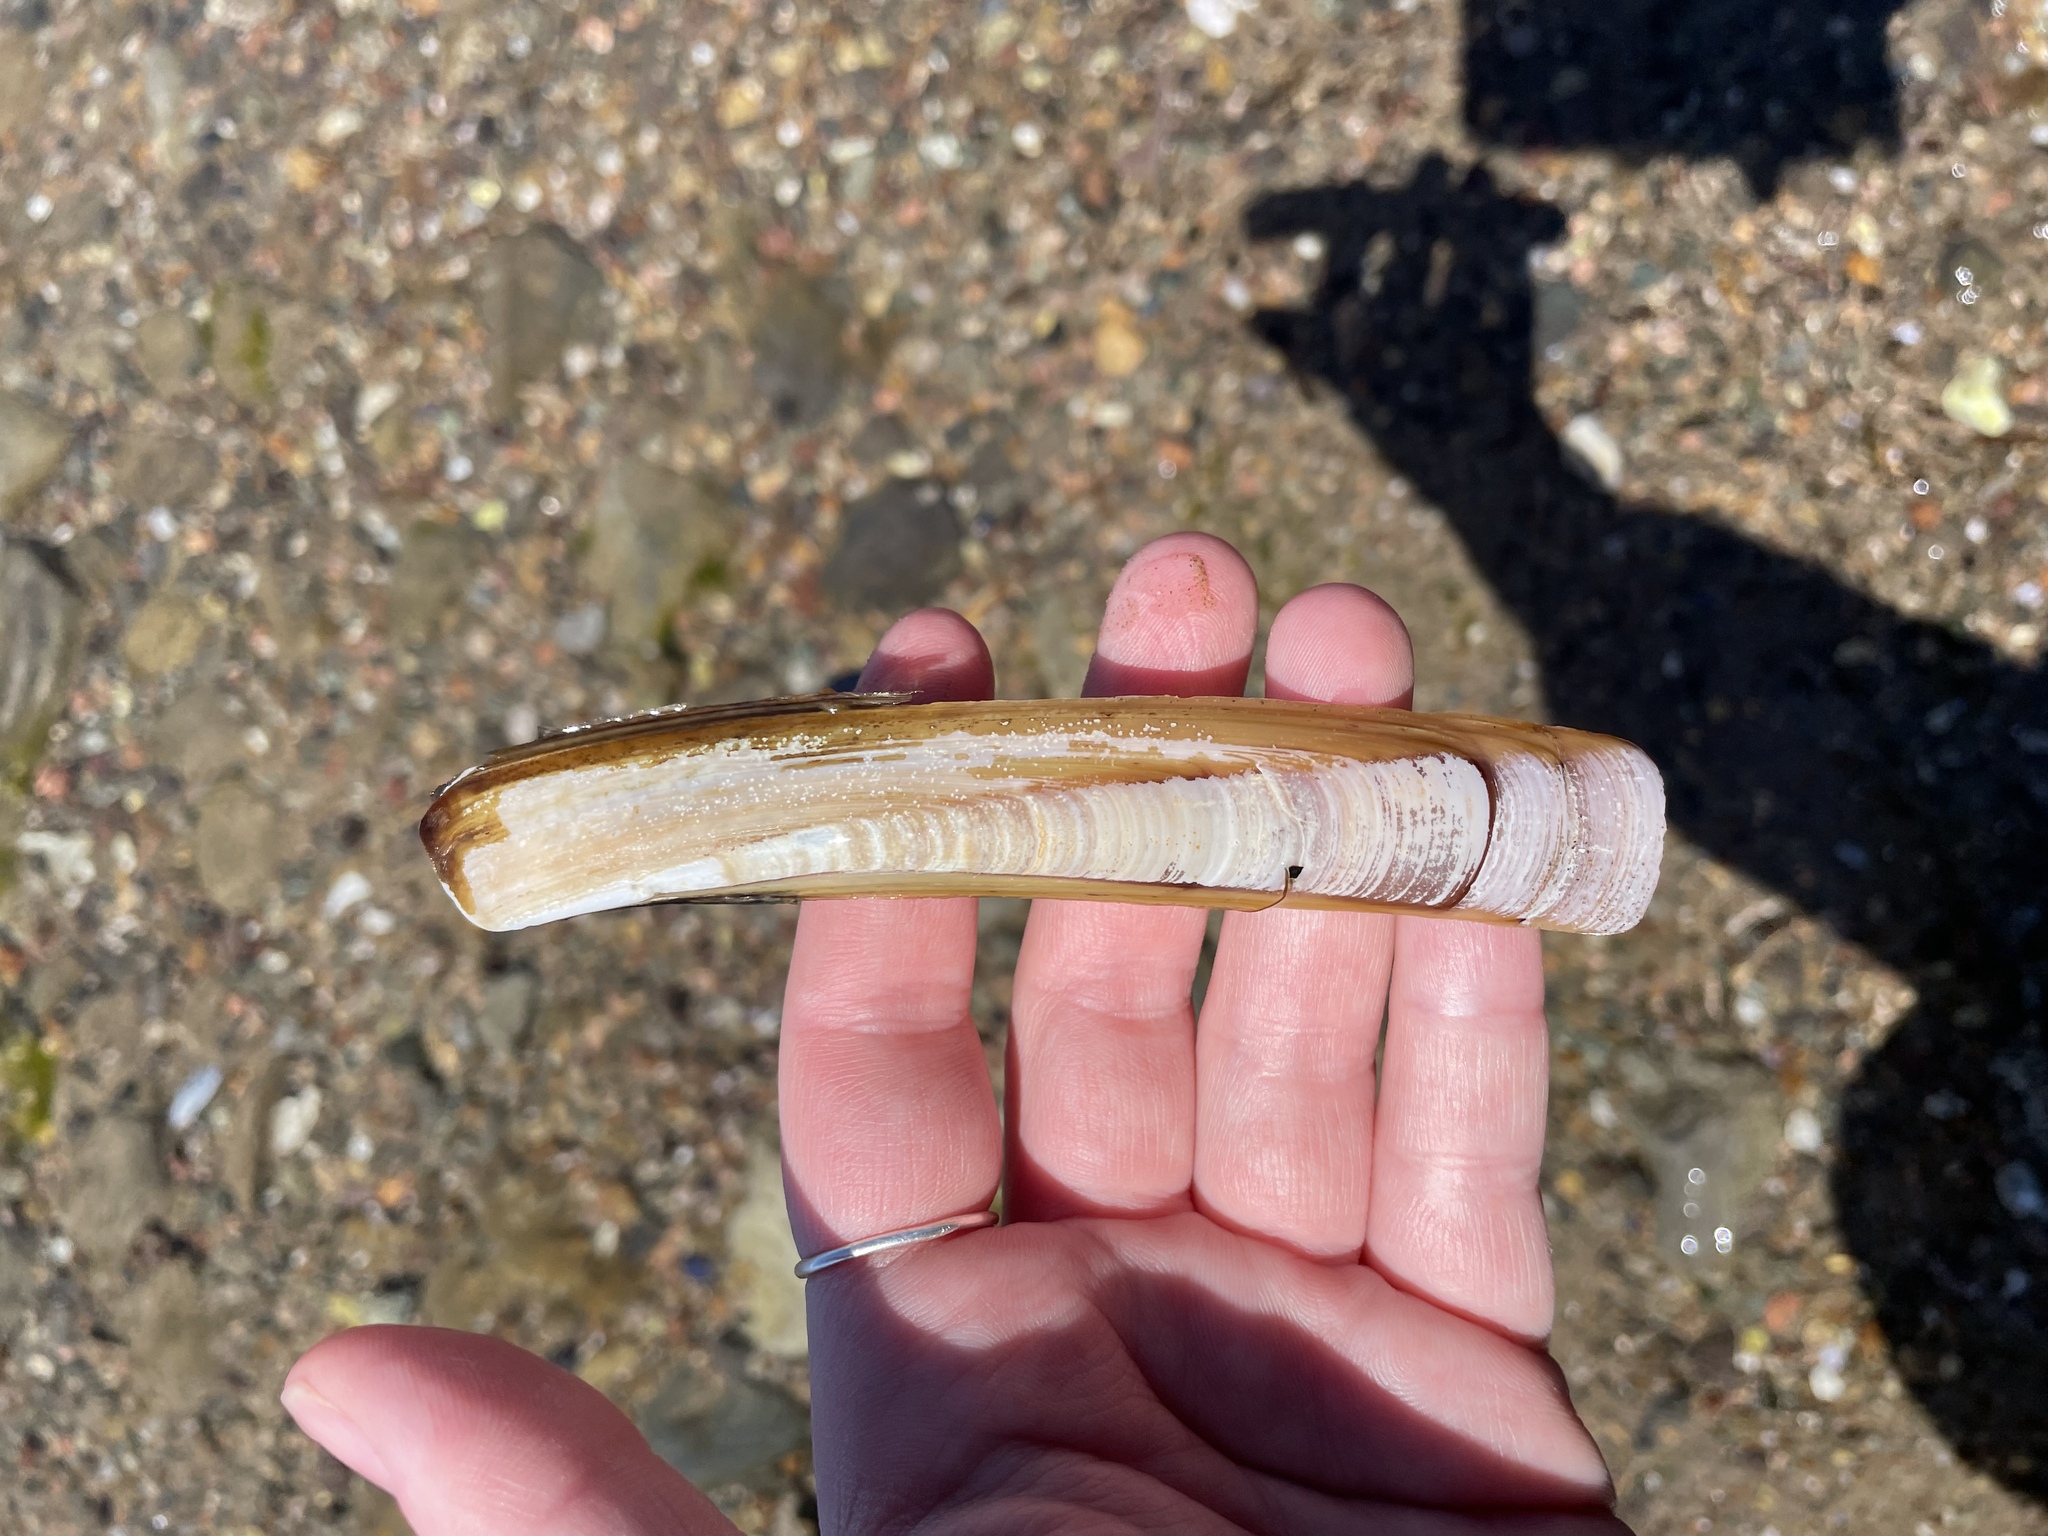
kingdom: Animalia
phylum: Mollusca
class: Bivalvia
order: Adapedonta
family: Pharidae
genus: Ensis
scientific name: Ensis leei
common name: American jack knife clam
